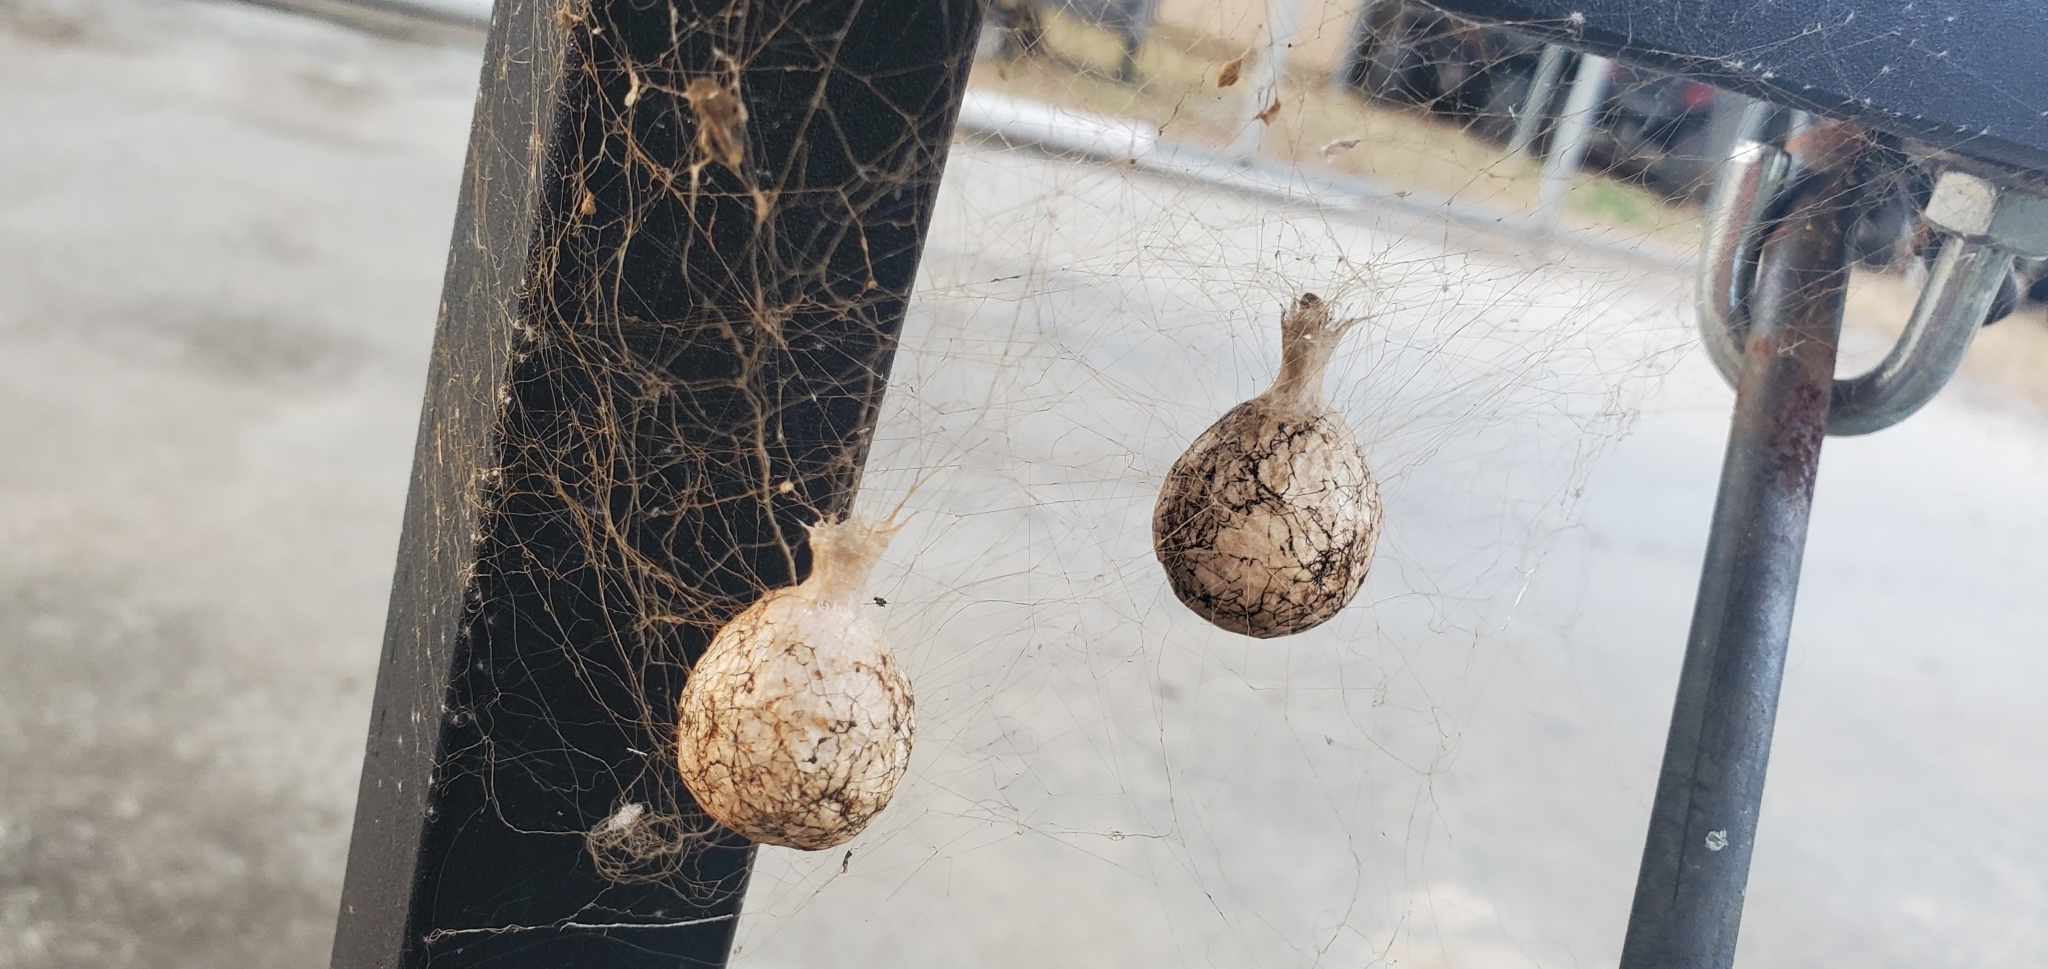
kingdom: Animalia
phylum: Arthropoda
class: Arachnida
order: Araneae
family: Araneidae
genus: Argiope
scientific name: Argiope aurantia
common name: Orb weavers
